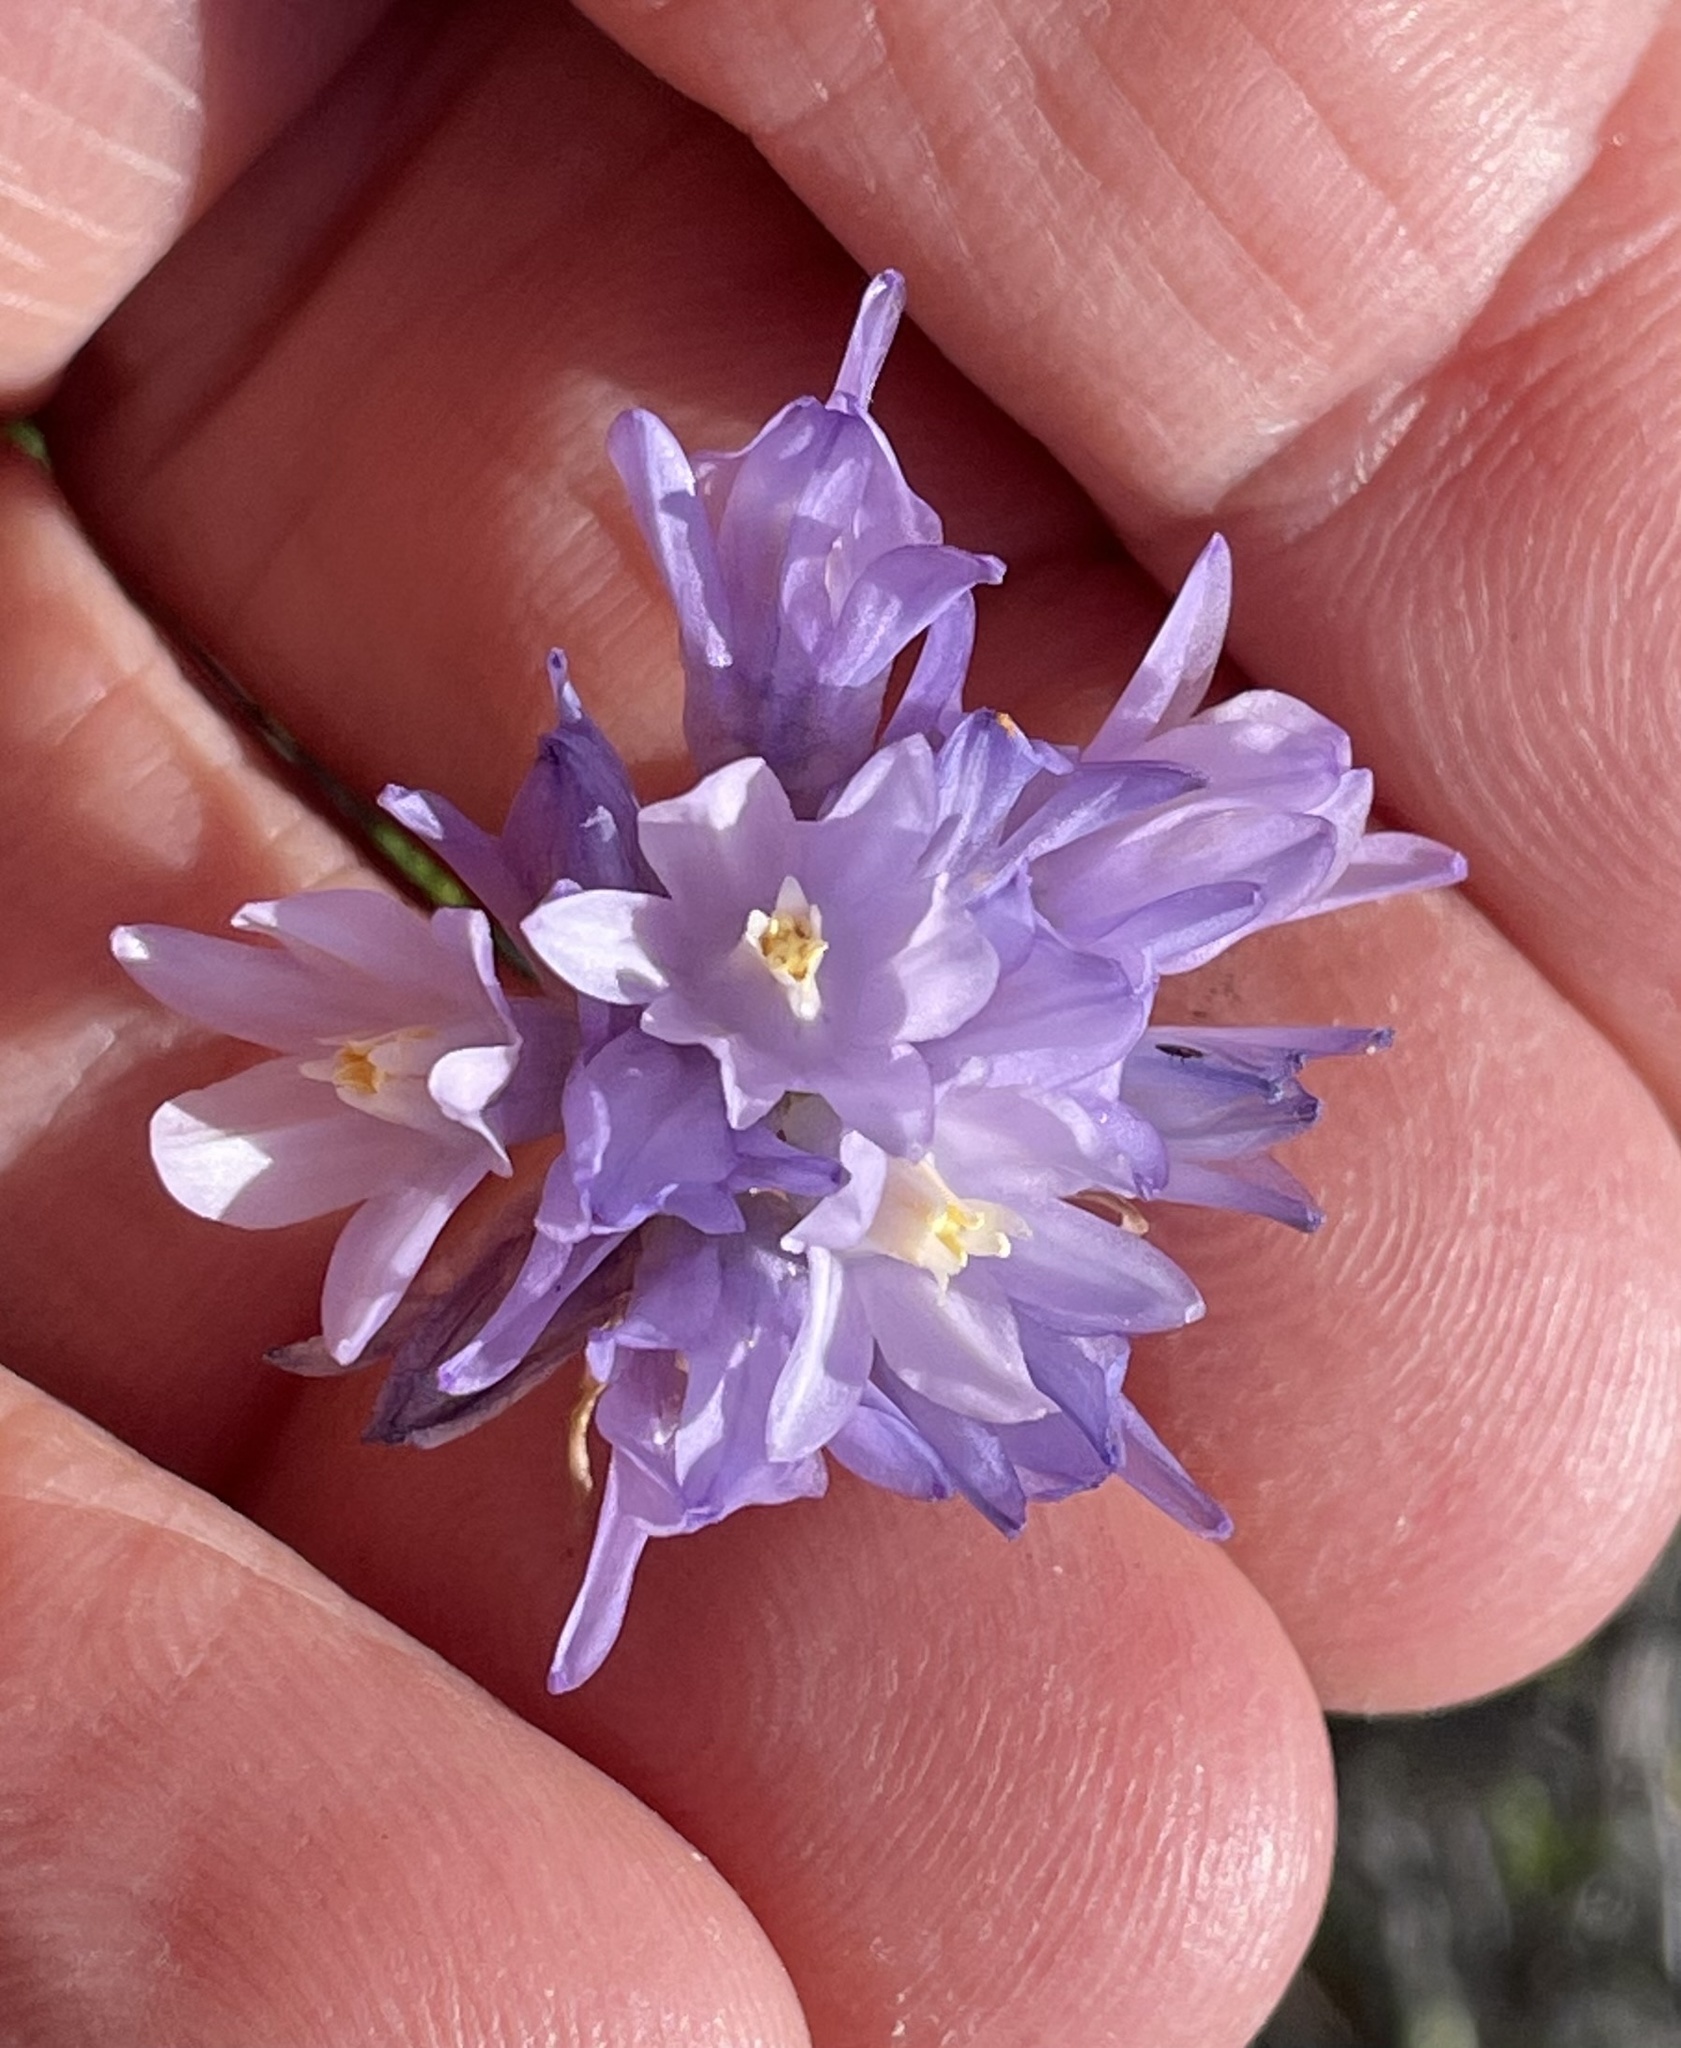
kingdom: Plantae
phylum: Tracheophyta
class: Liliopsida
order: Asparagales
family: Asparagaceae
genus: Dipterostemon
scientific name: Dipterostemon capitatus
